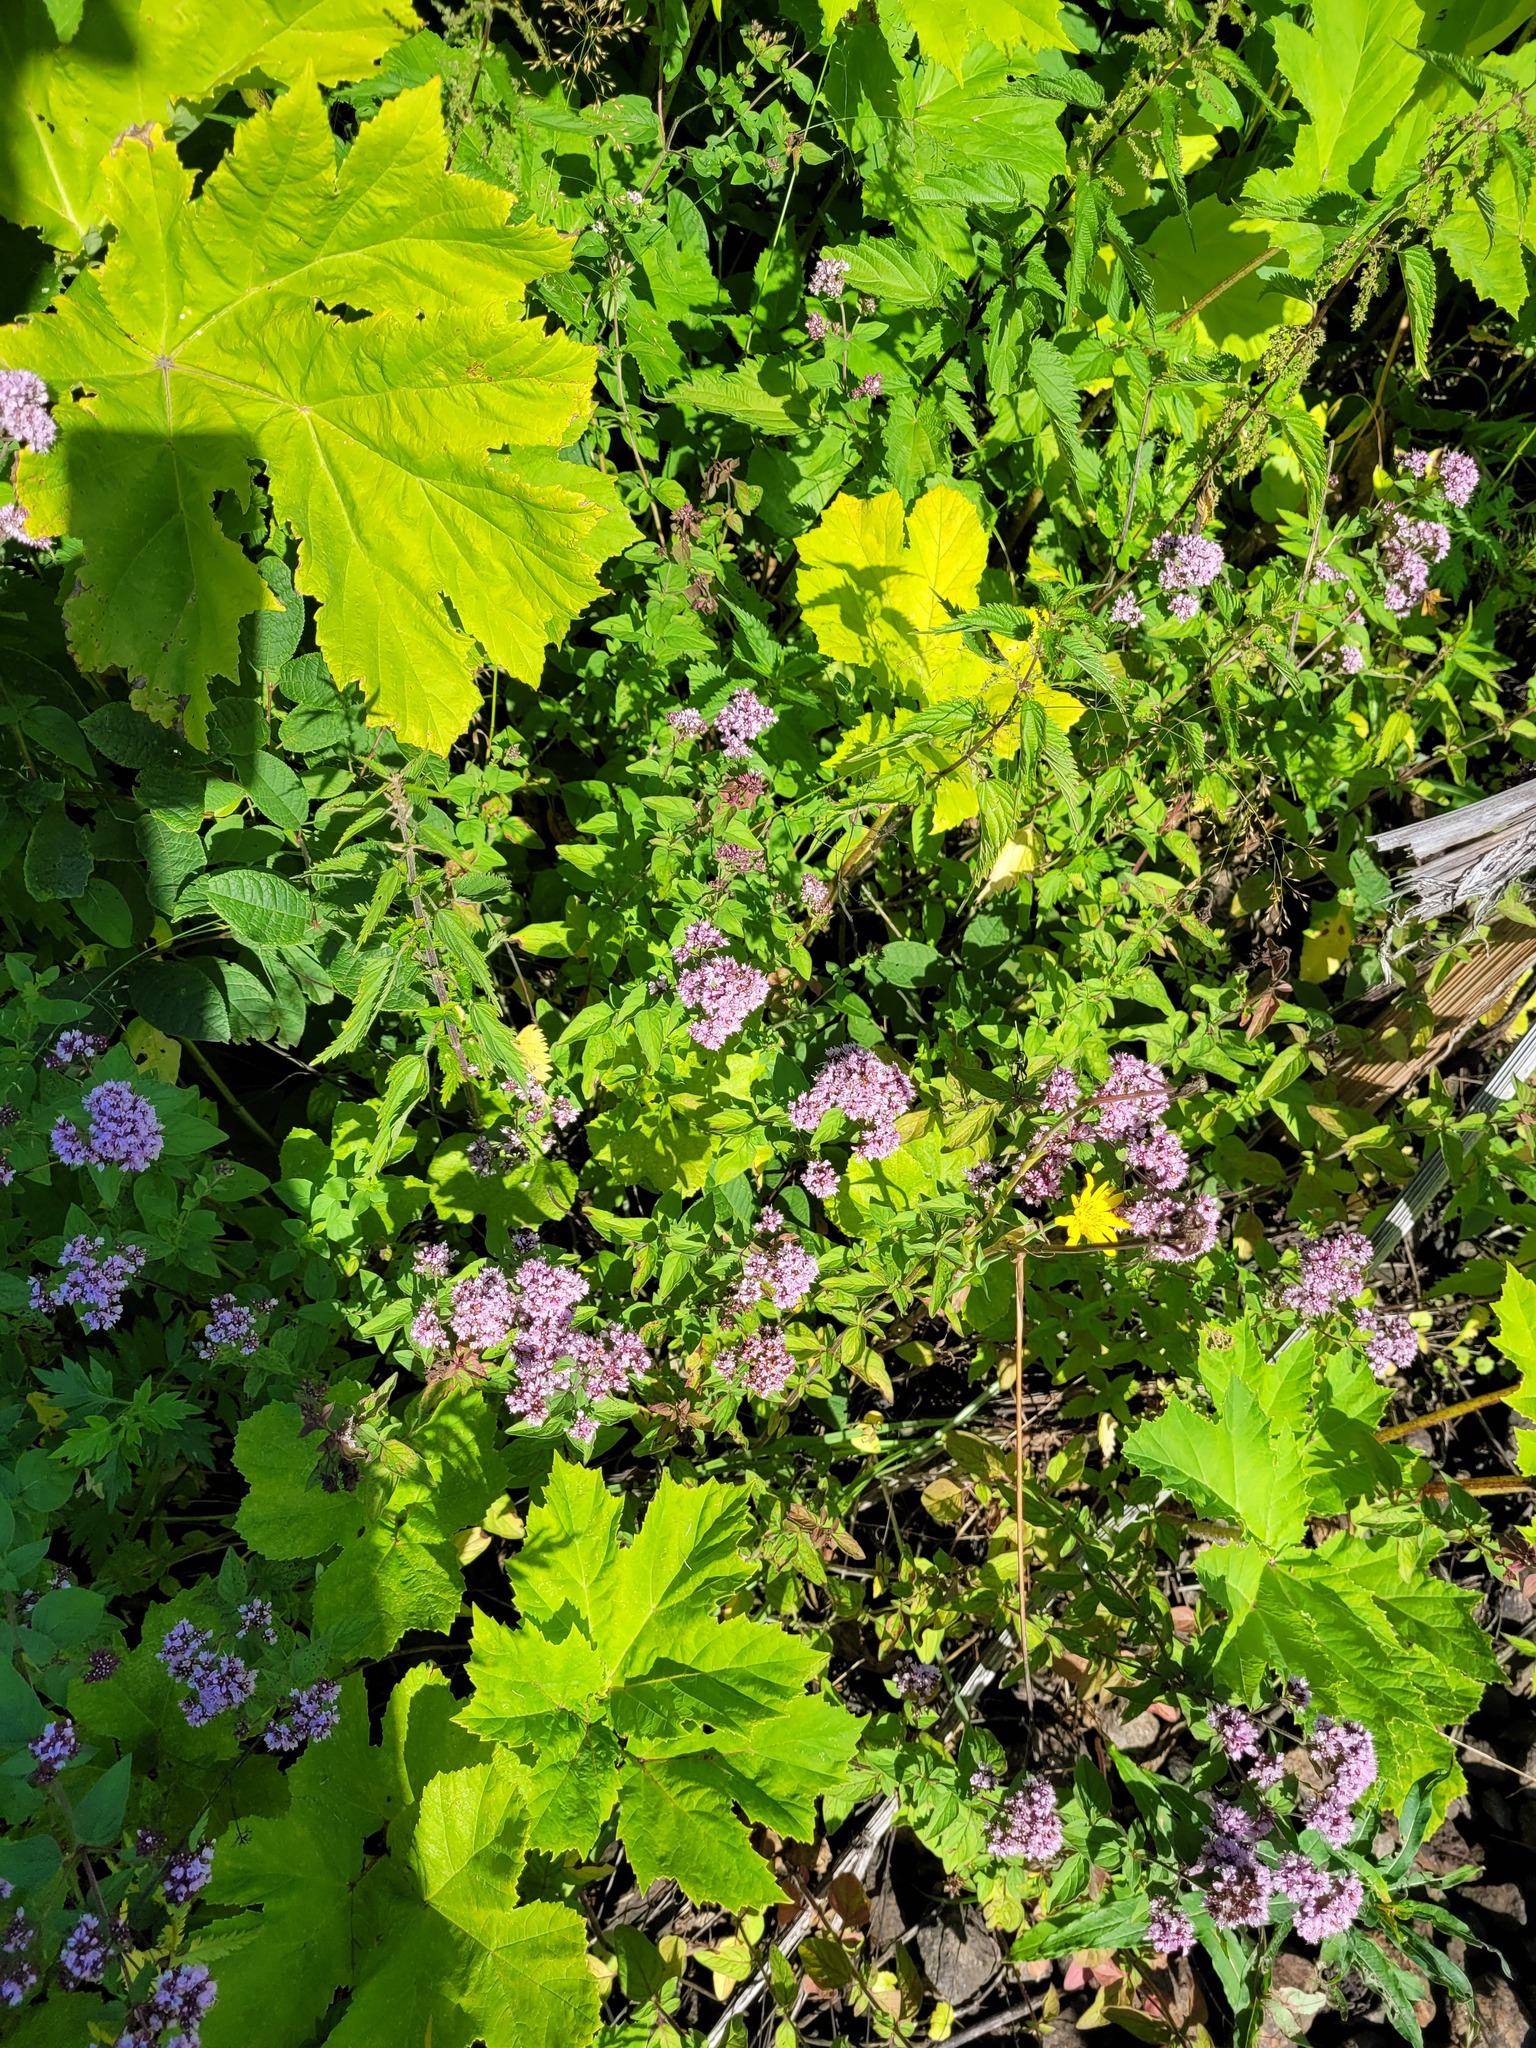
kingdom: Plantae
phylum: Tracheophyta
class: Magnoliopsida
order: Lamiales
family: Lamiaceae
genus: Origanum
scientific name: Origanum vulgare
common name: Wild marjoram
